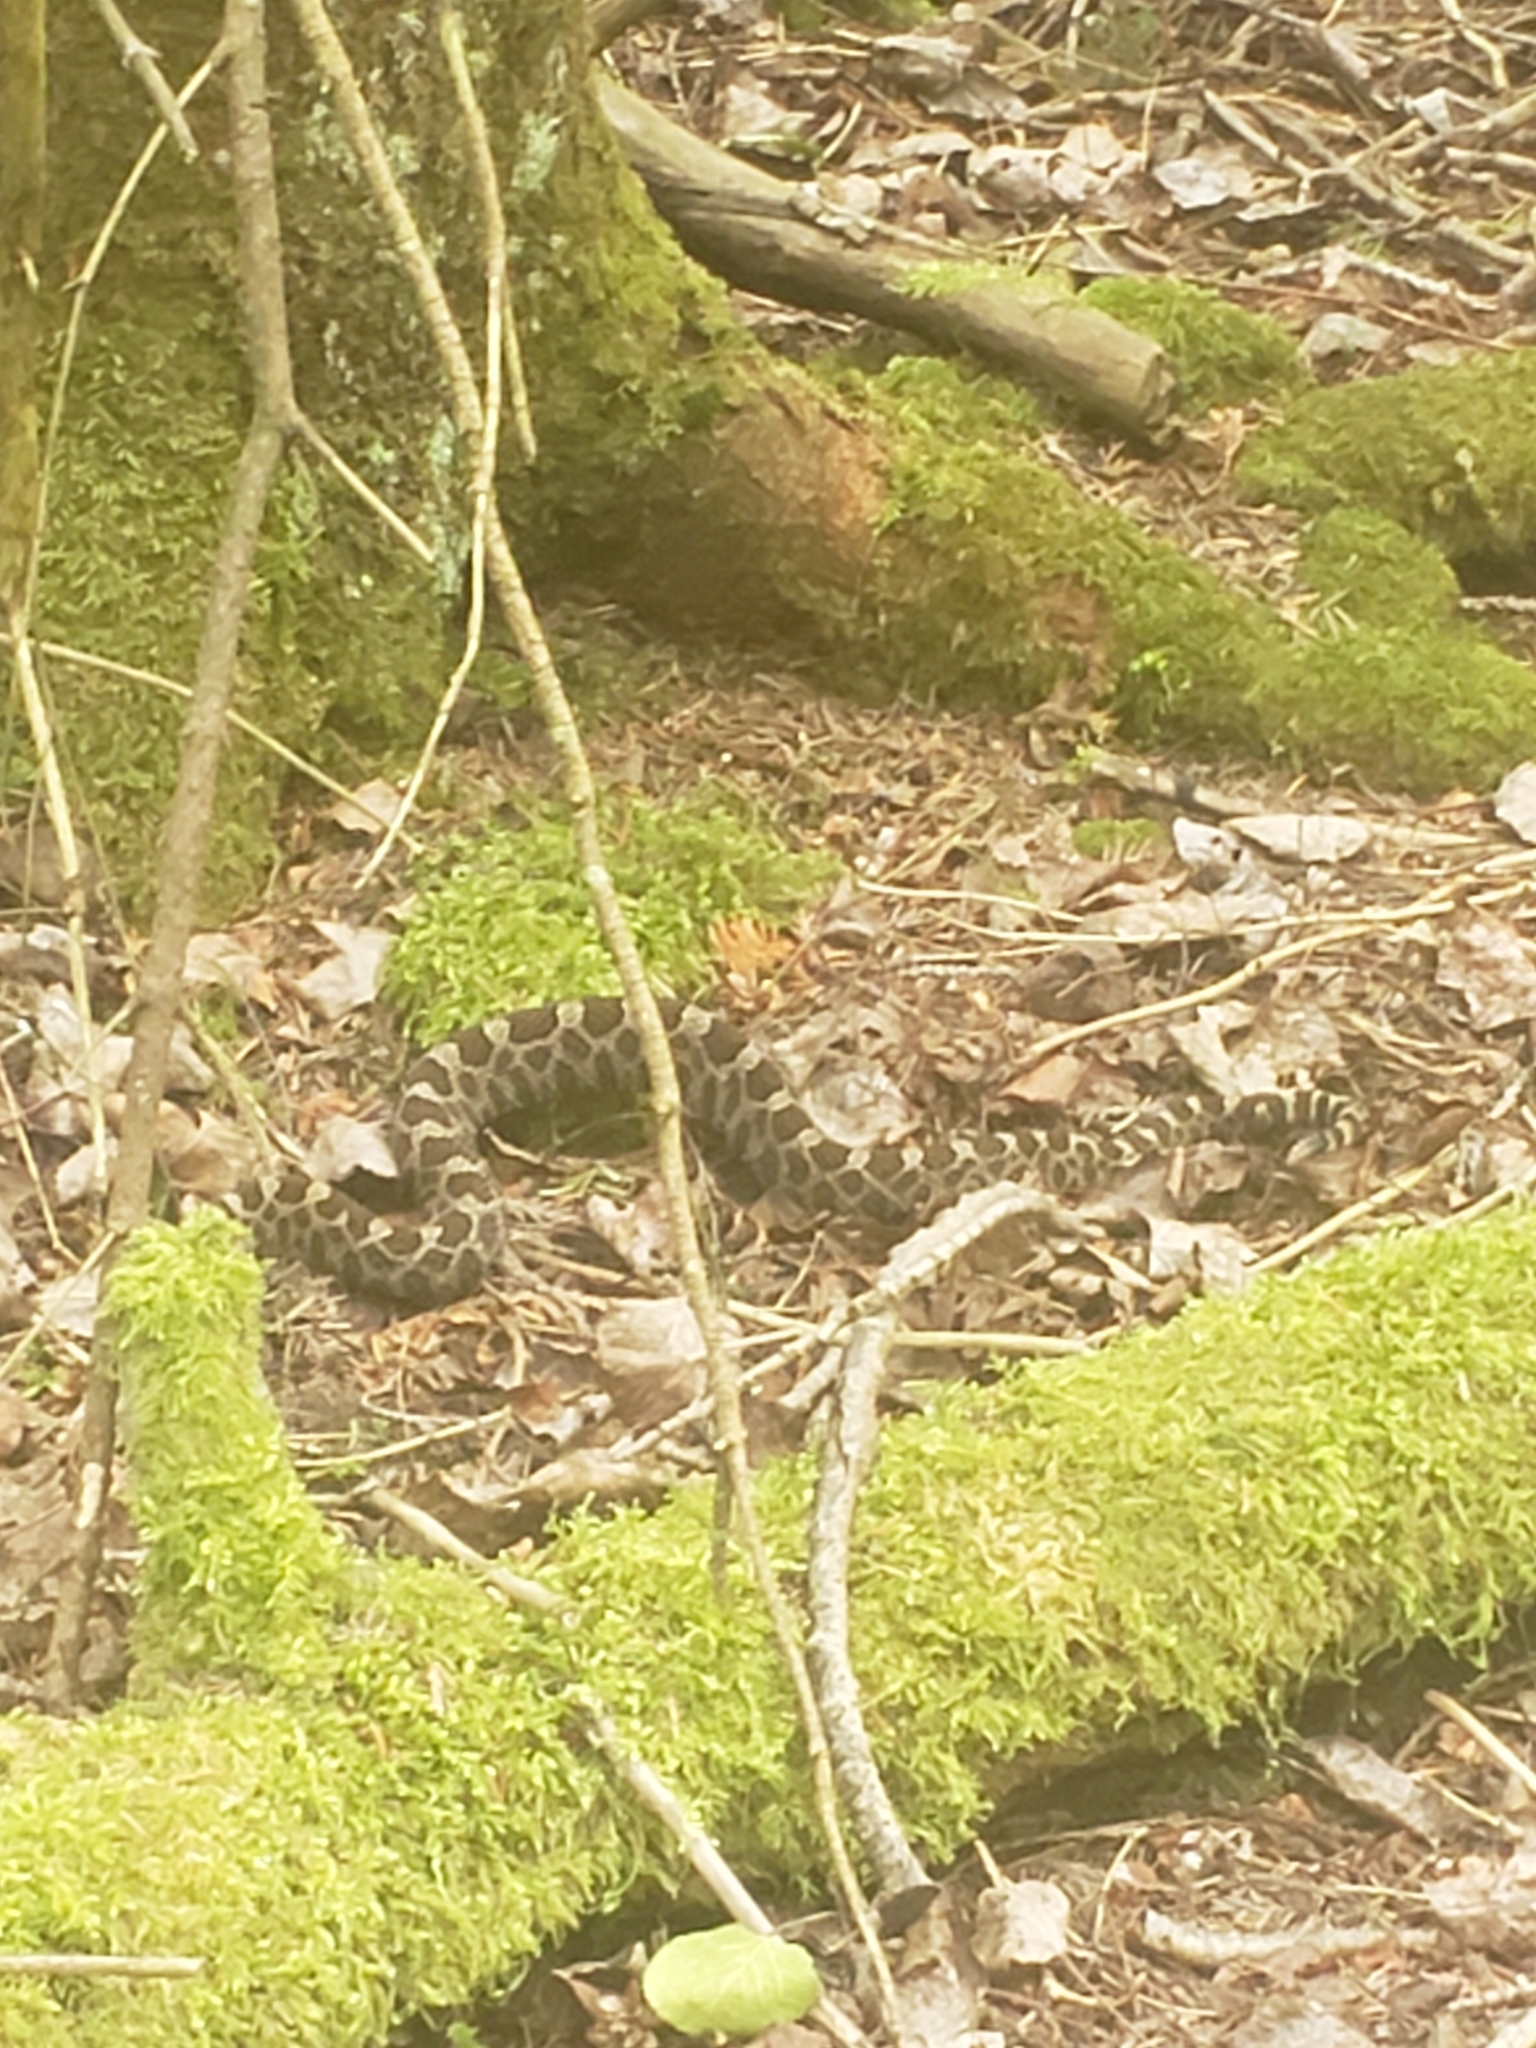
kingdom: Animalia
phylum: Chordata
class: Squamata
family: Viperidae
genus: Sistrurus
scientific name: Sistrurus catenatus
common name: Massasauga
